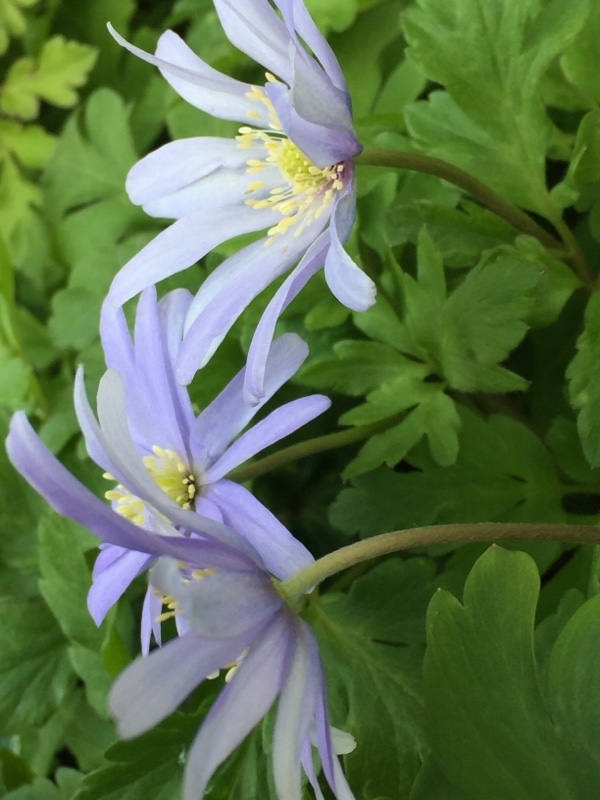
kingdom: Plantae
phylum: Tracheophyta
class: Magnoliopsida
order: Ranunculales
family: Ranunculaceae
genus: Anemone
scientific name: Anemone apennina
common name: Blue anemone
